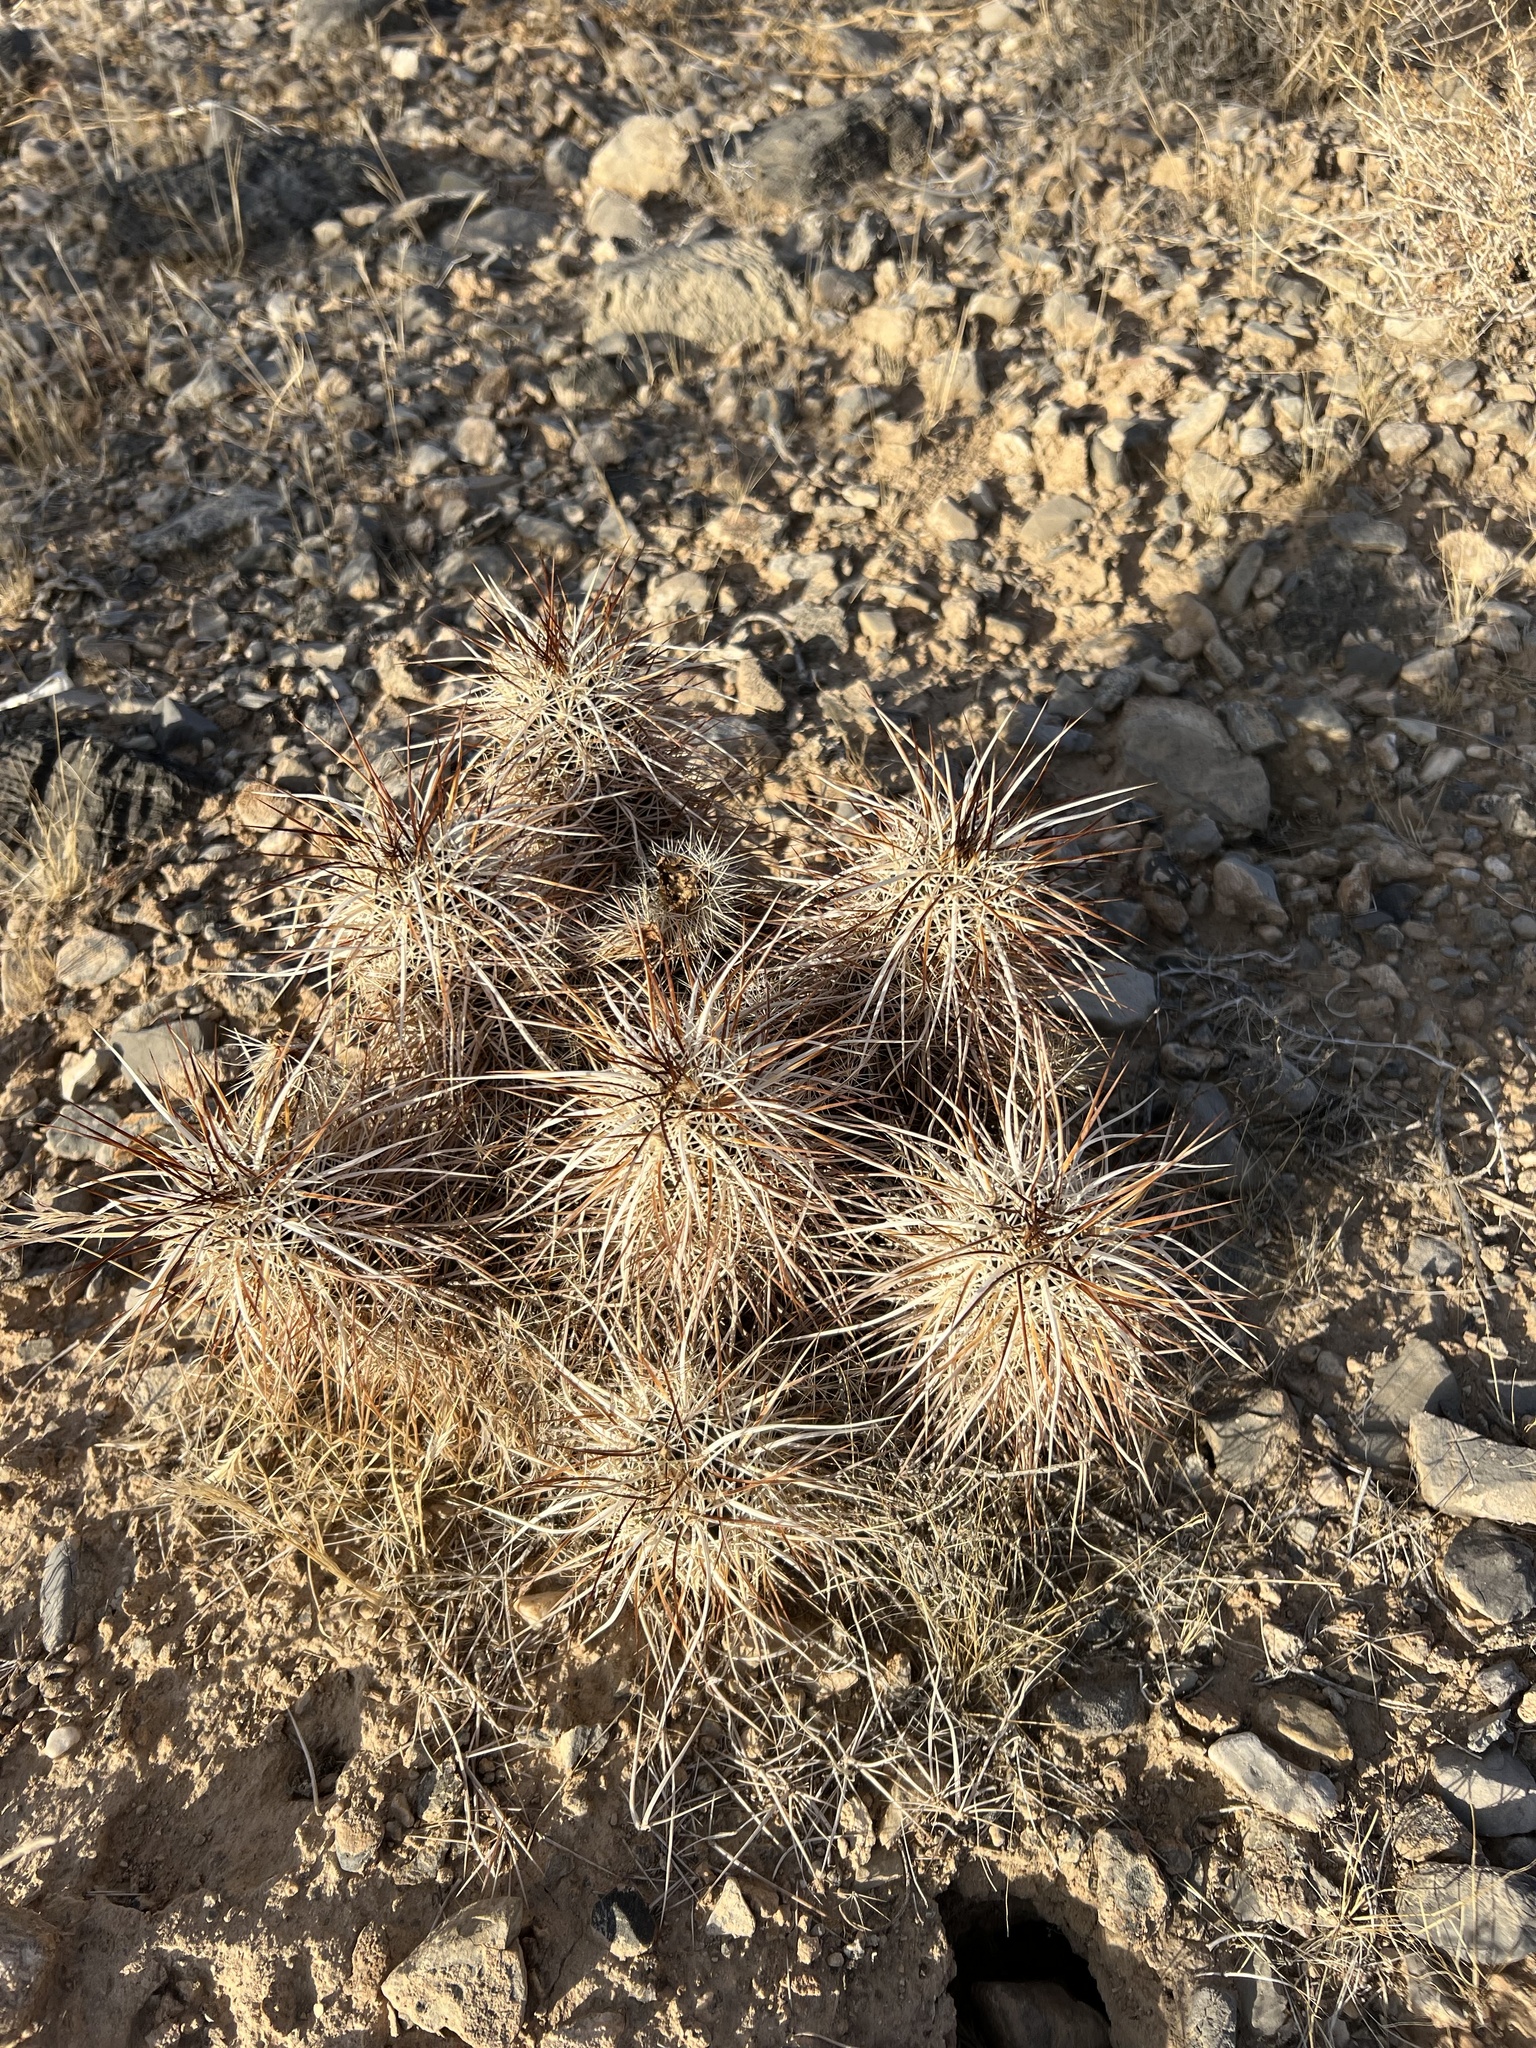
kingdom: Plantae
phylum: Tracheophyta
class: Magnoliopsida
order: Caryophyllales
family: Cactaceae
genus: Echinocereus
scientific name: Echinocereus engelmannii
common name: Engelmann's hedgehog cactus
